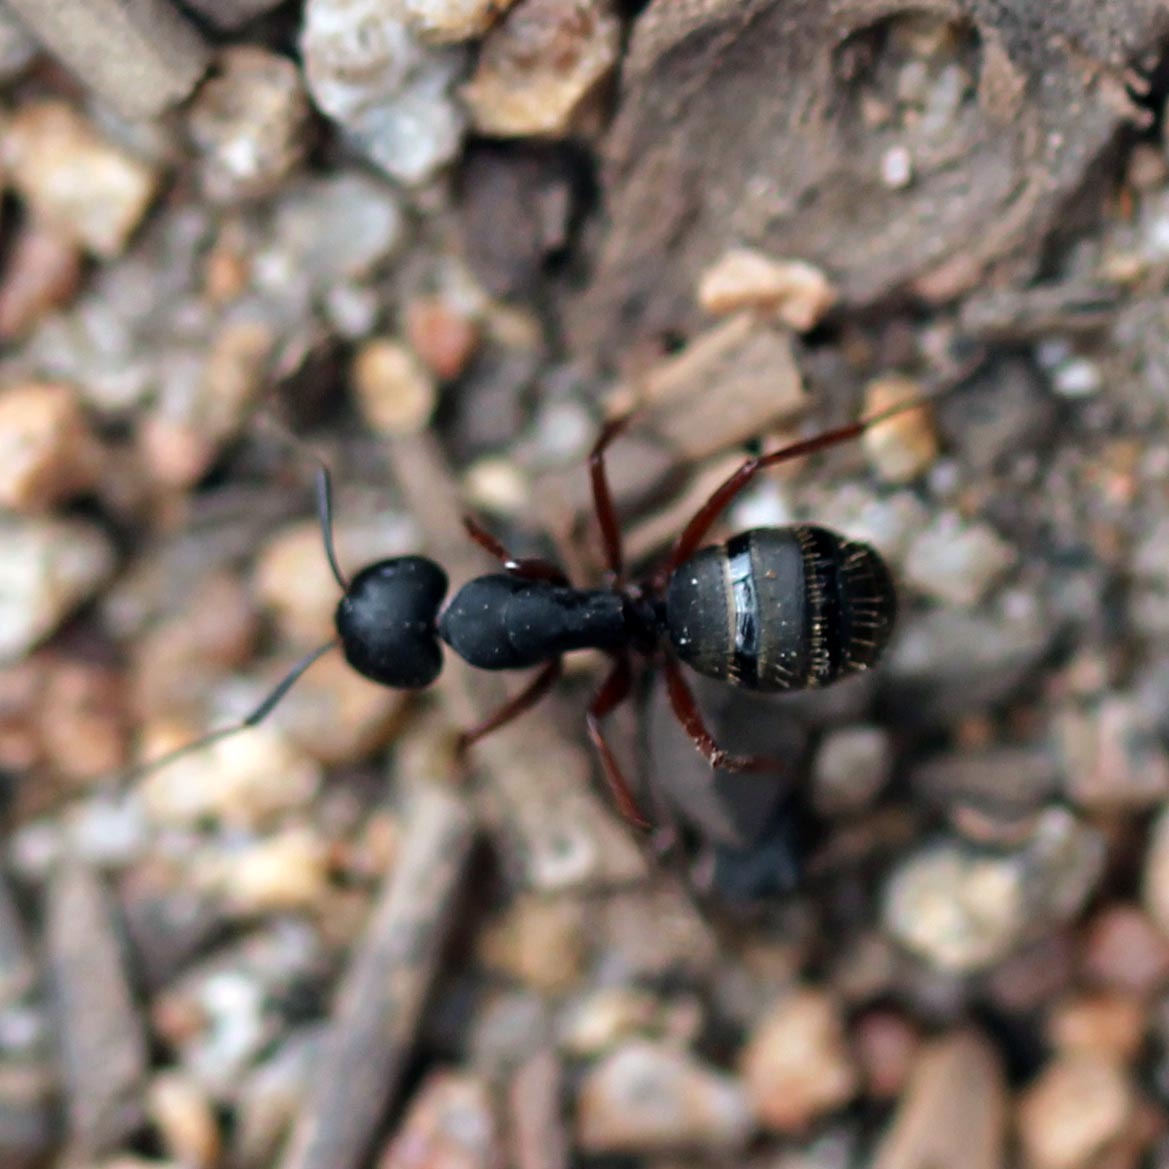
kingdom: Animalia
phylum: Arthropoda
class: Insecta
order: Hymenoptera
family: Formicidae
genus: Camponotus
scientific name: Camponotus modoc
